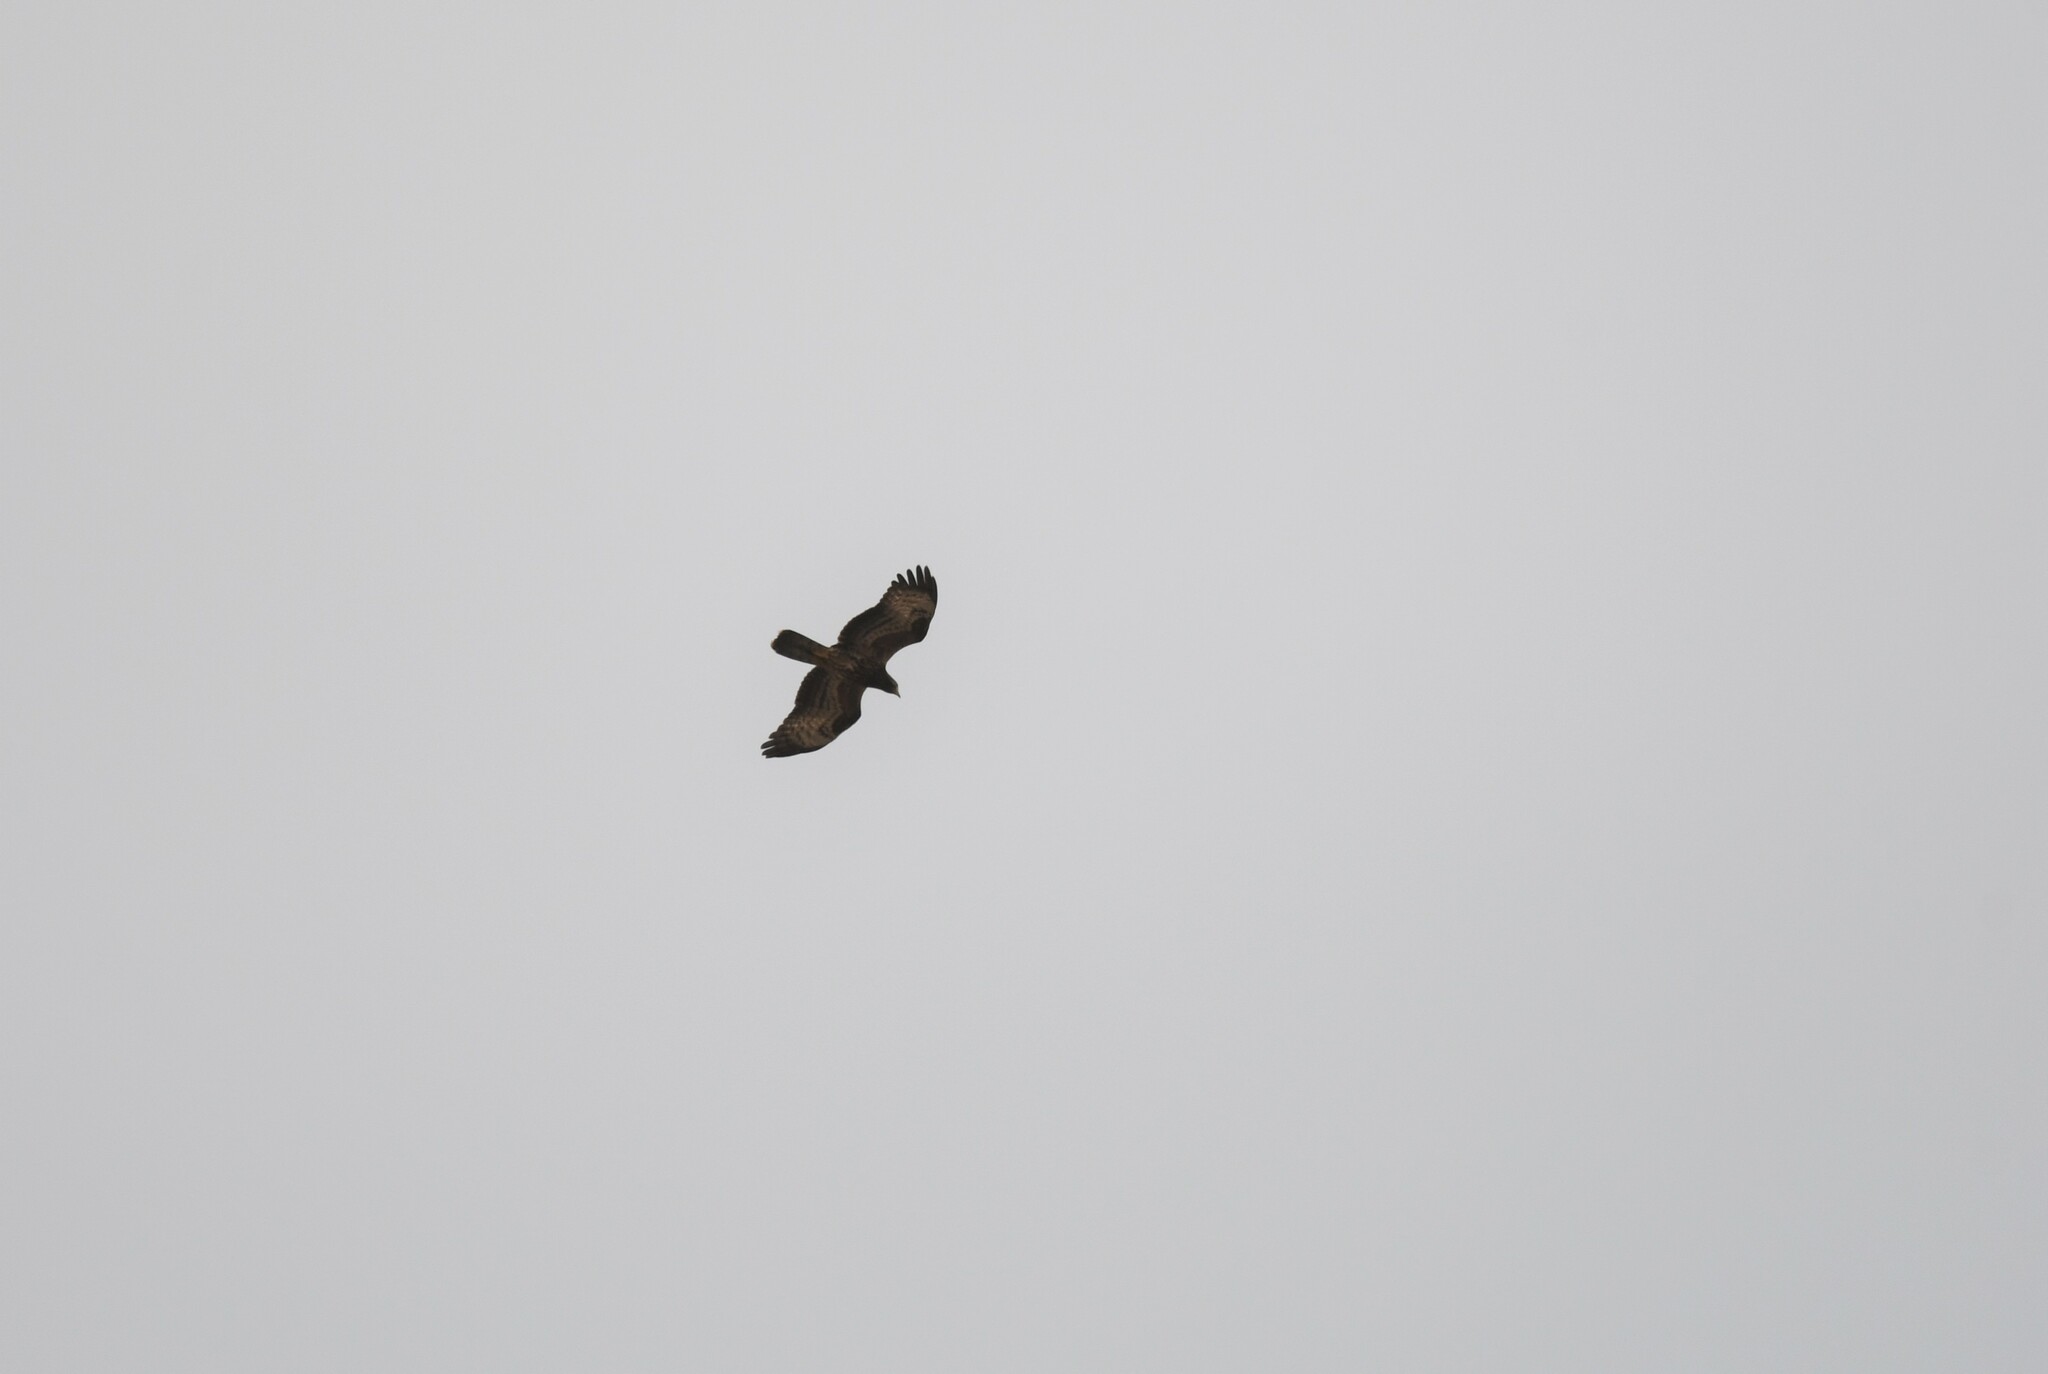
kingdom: Animalia
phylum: Chordata
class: Aves
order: Accipitriformes
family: Accipitridae
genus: Pernis
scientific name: Pernis apivorus
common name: European honey buzzard
